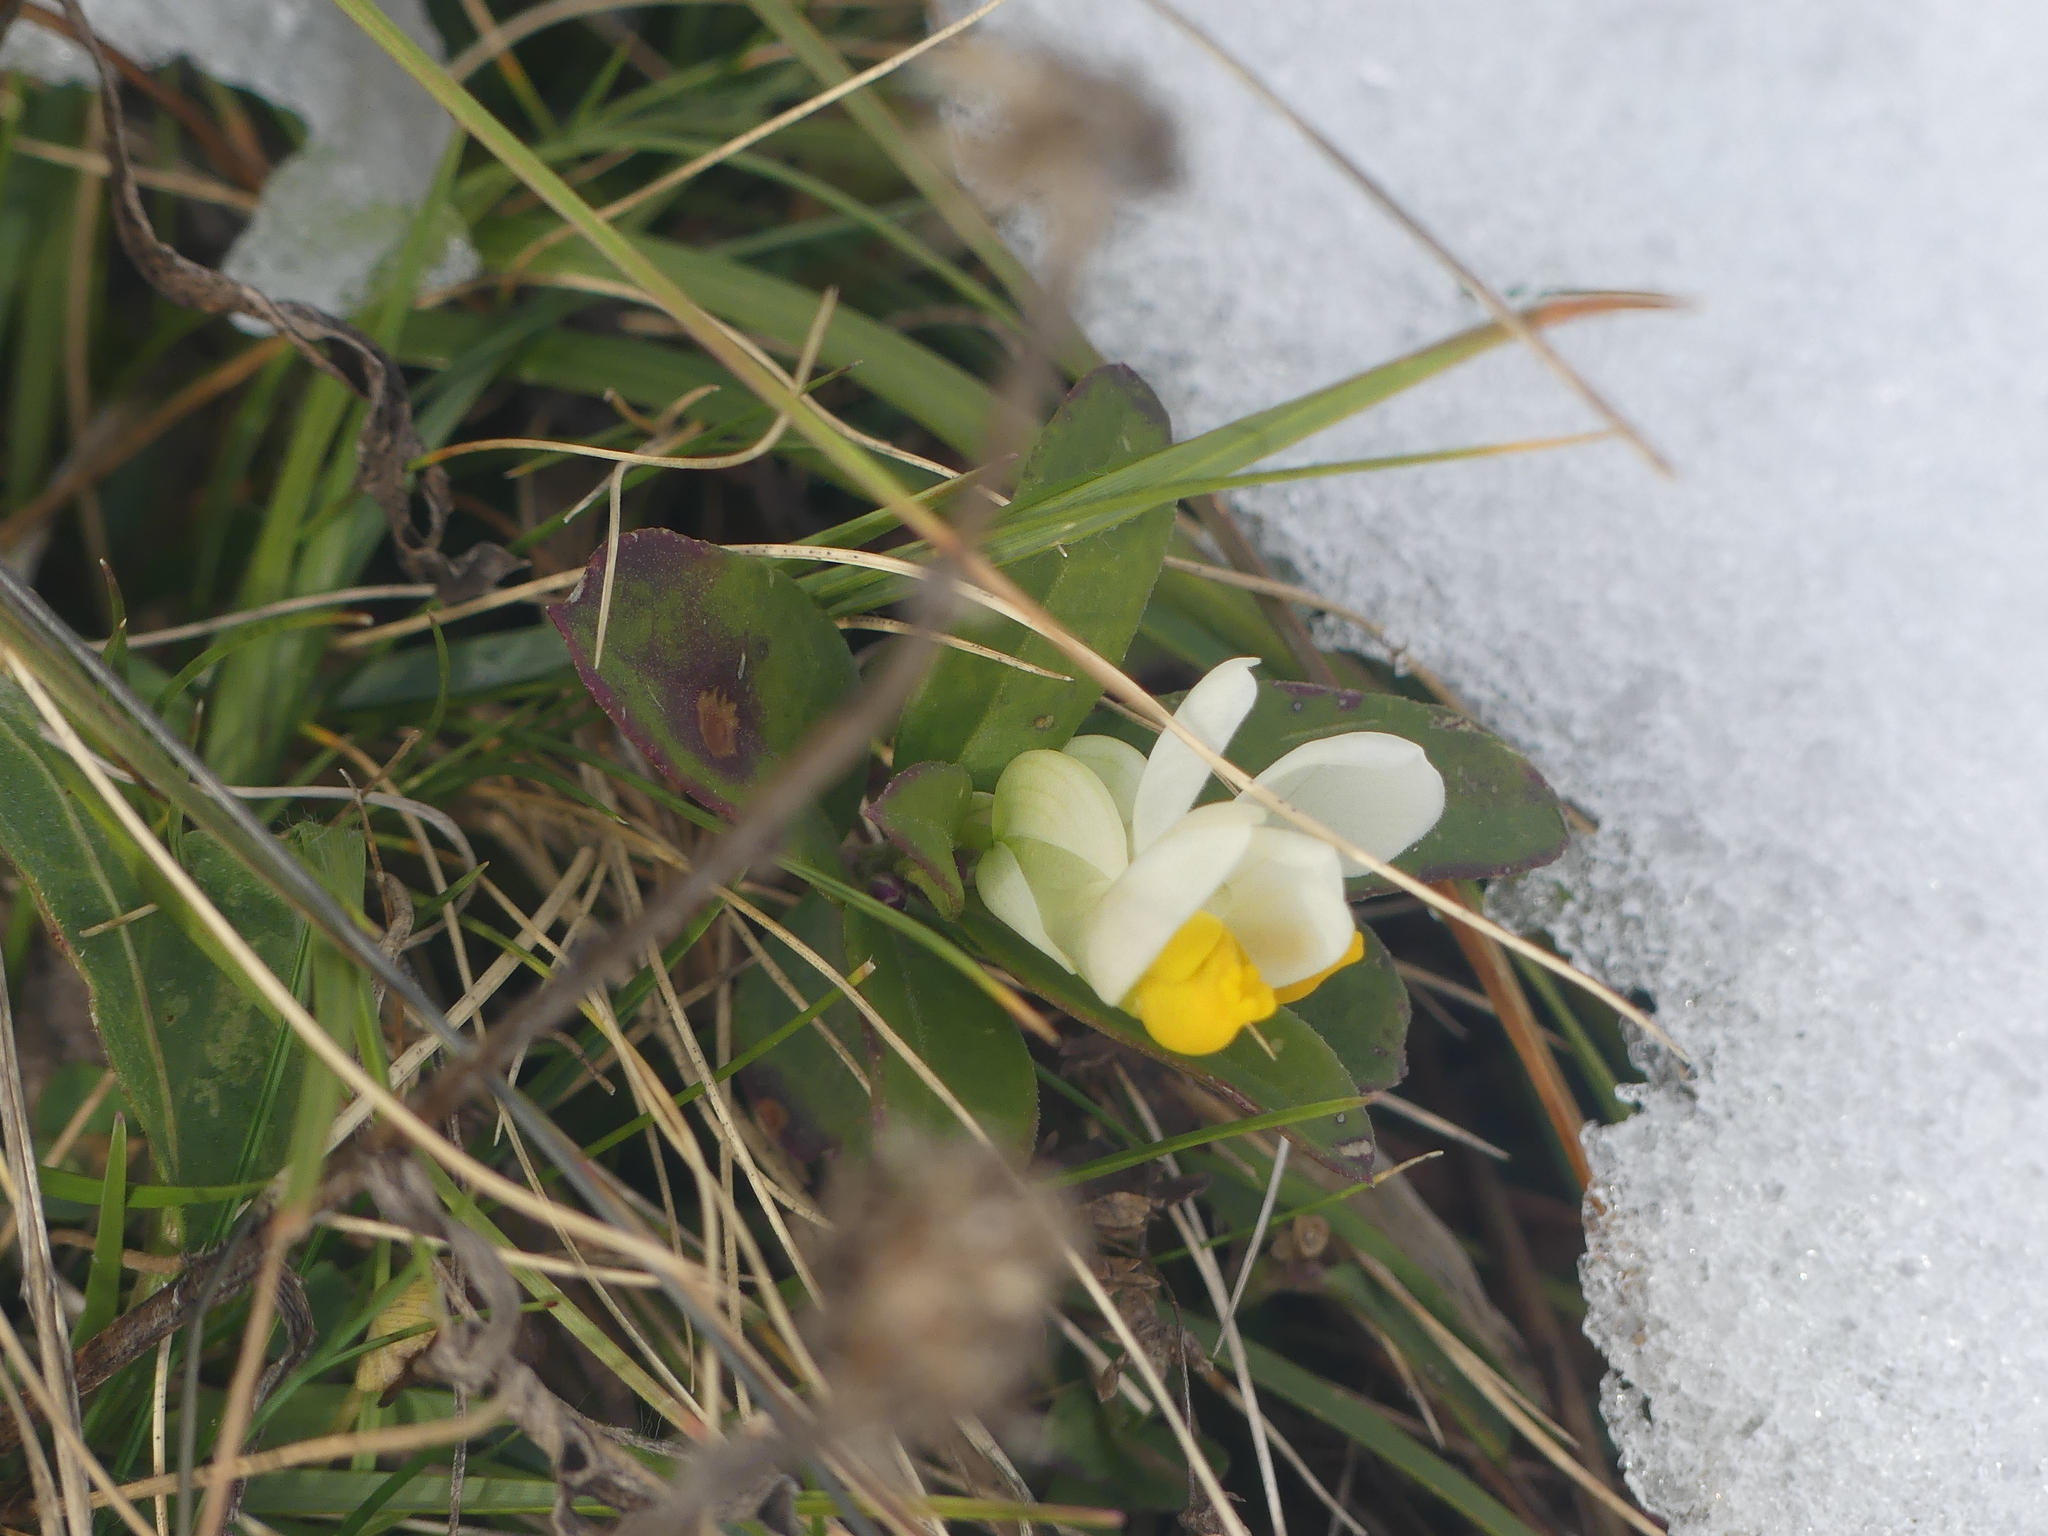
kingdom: Plantae
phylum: Tracheophyta
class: Magnoliopsida
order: Fabales
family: Polygalaceae
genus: Polygaloides
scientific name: Polygaloides chamaebuxus
